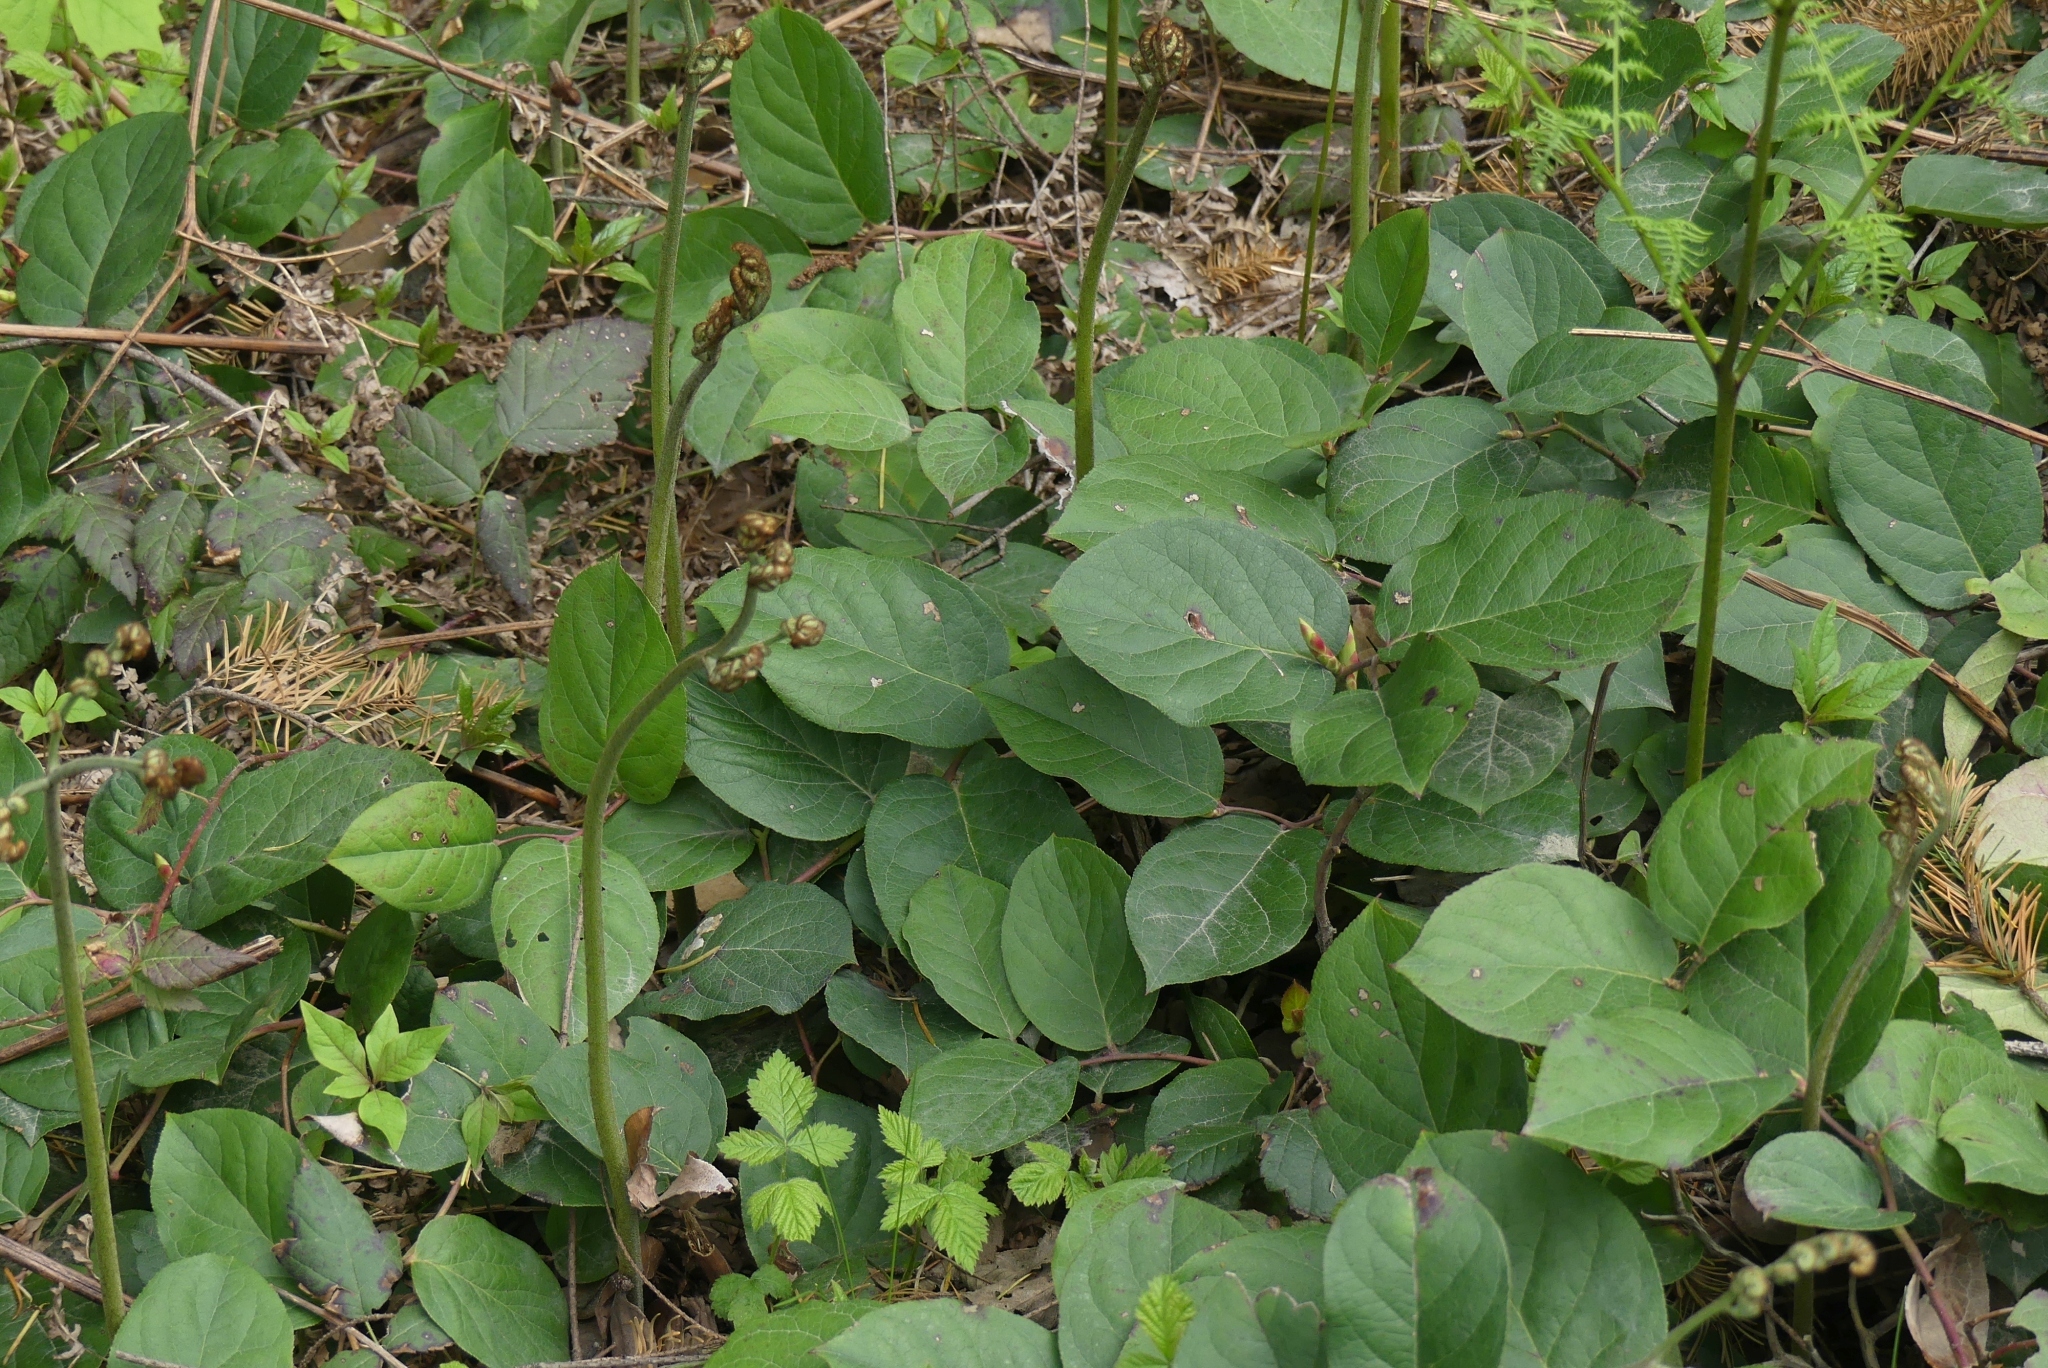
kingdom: Plantae
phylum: Tracheophyta
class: Magnoliopsida
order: Ericales
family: Ericaceae
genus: Gaultheria
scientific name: Gaultheria shallon
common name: Shallon
